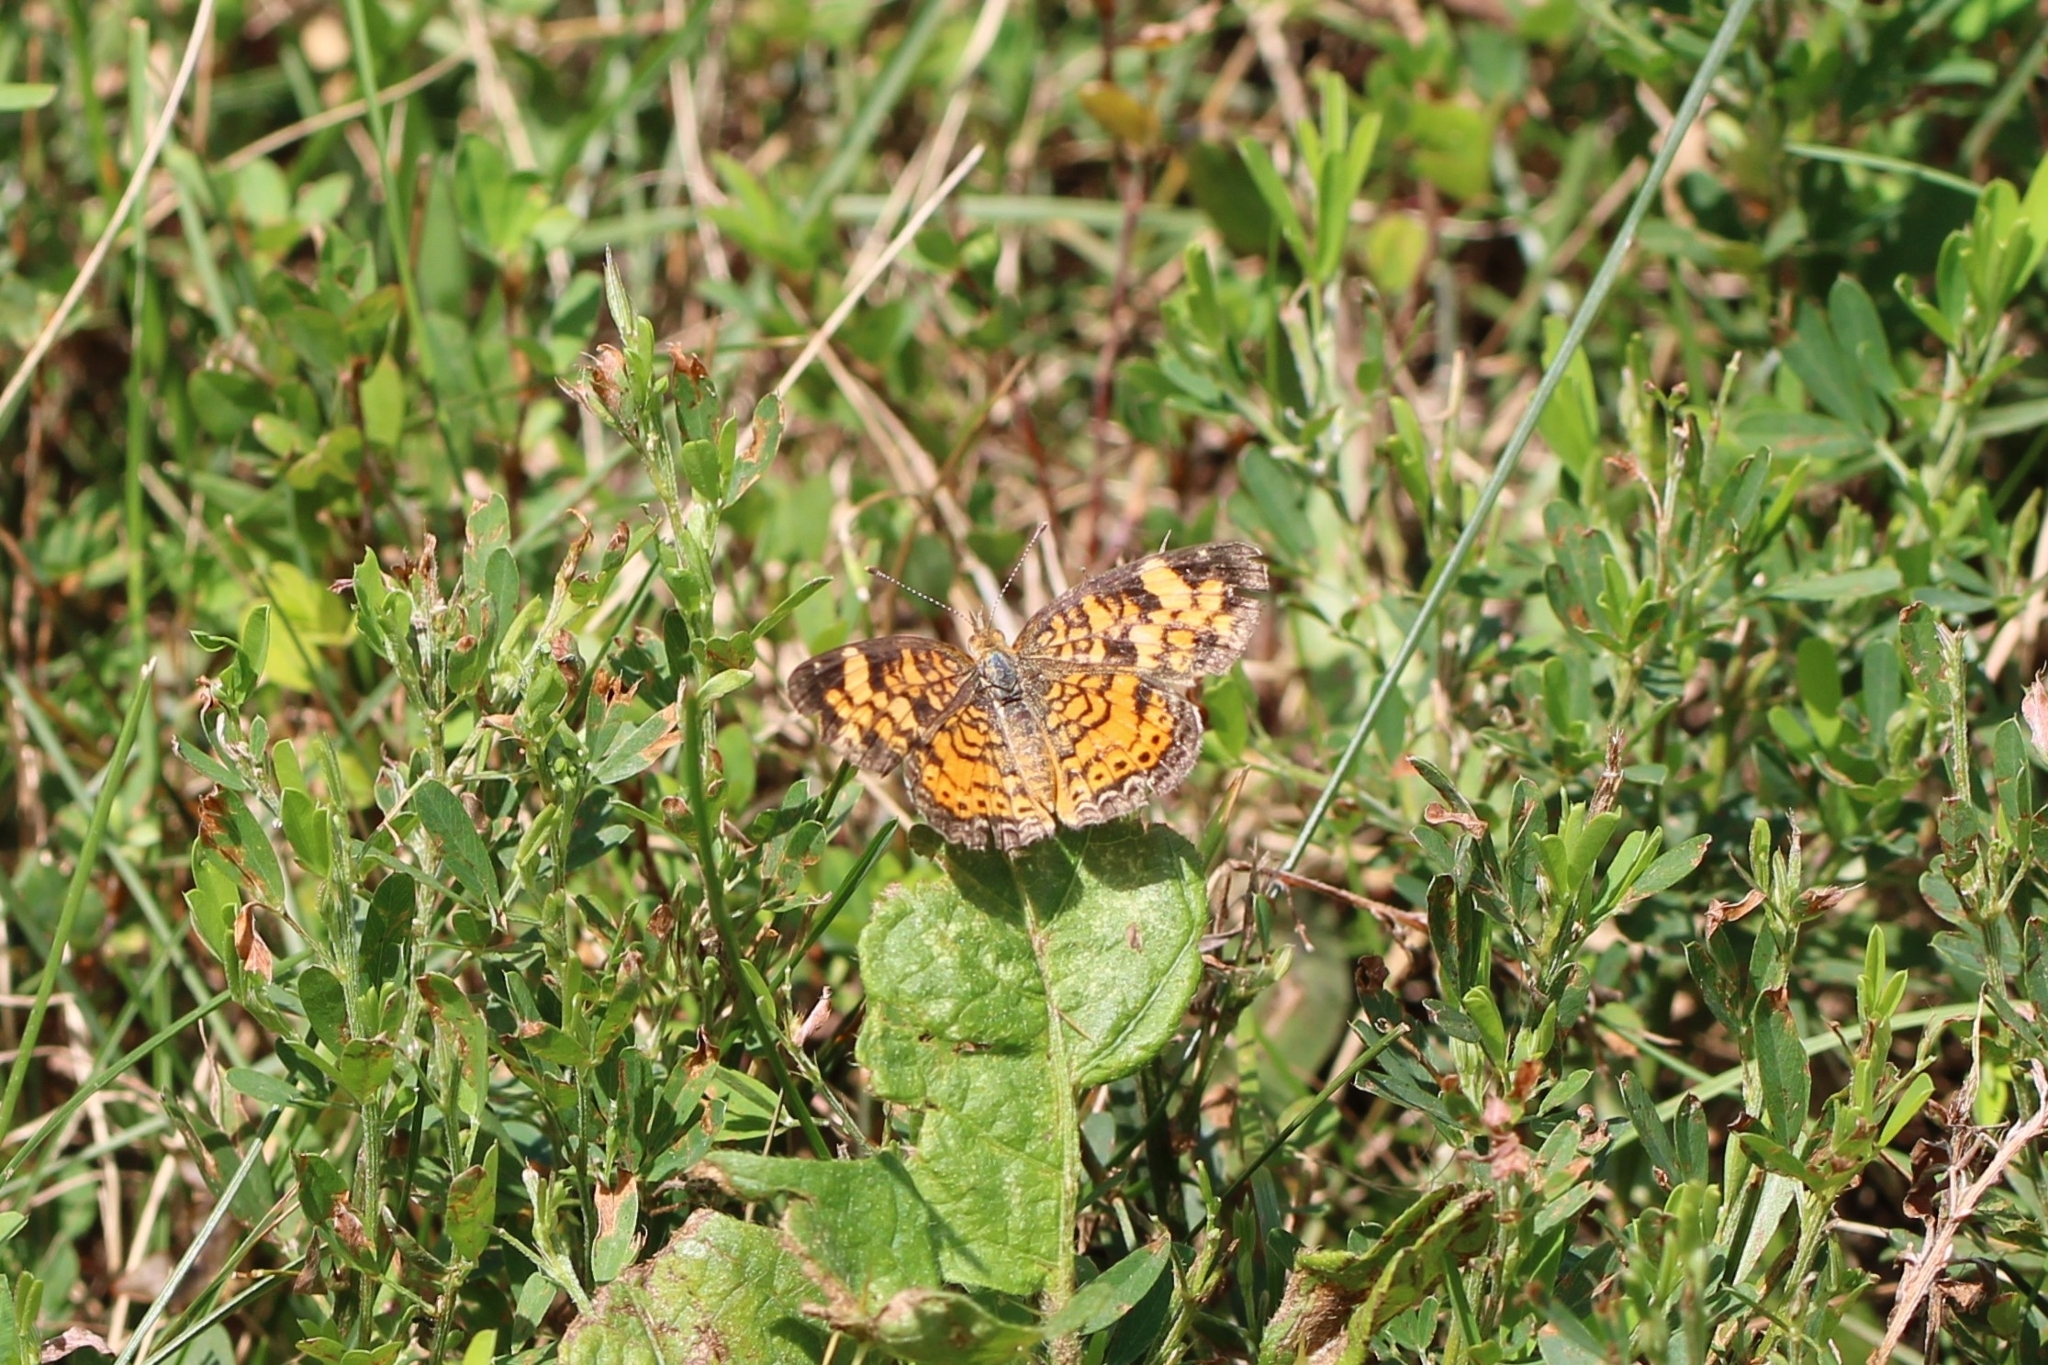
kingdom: Animalia
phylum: Arthropoda
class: Insecta
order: Lepidoptera
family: Nymphalidae
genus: Phyciodes
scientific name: Phyciodes tharos
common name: Pearl crescent
